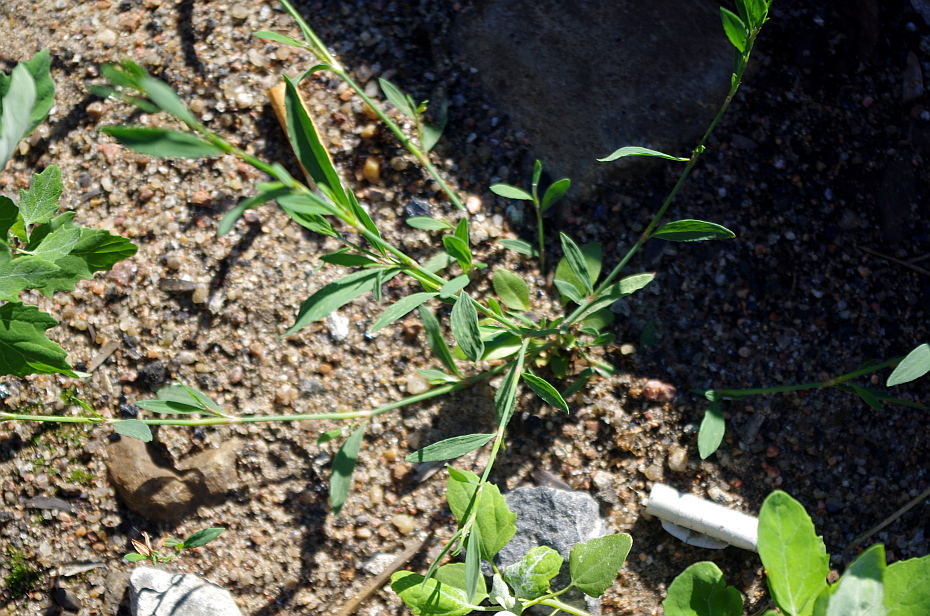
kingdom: Plantae
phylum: Tracheophyta
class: Magnoliopsida
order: Caryophyllales
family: Polygonaceae
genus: Polygonum
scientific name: Polygonum
